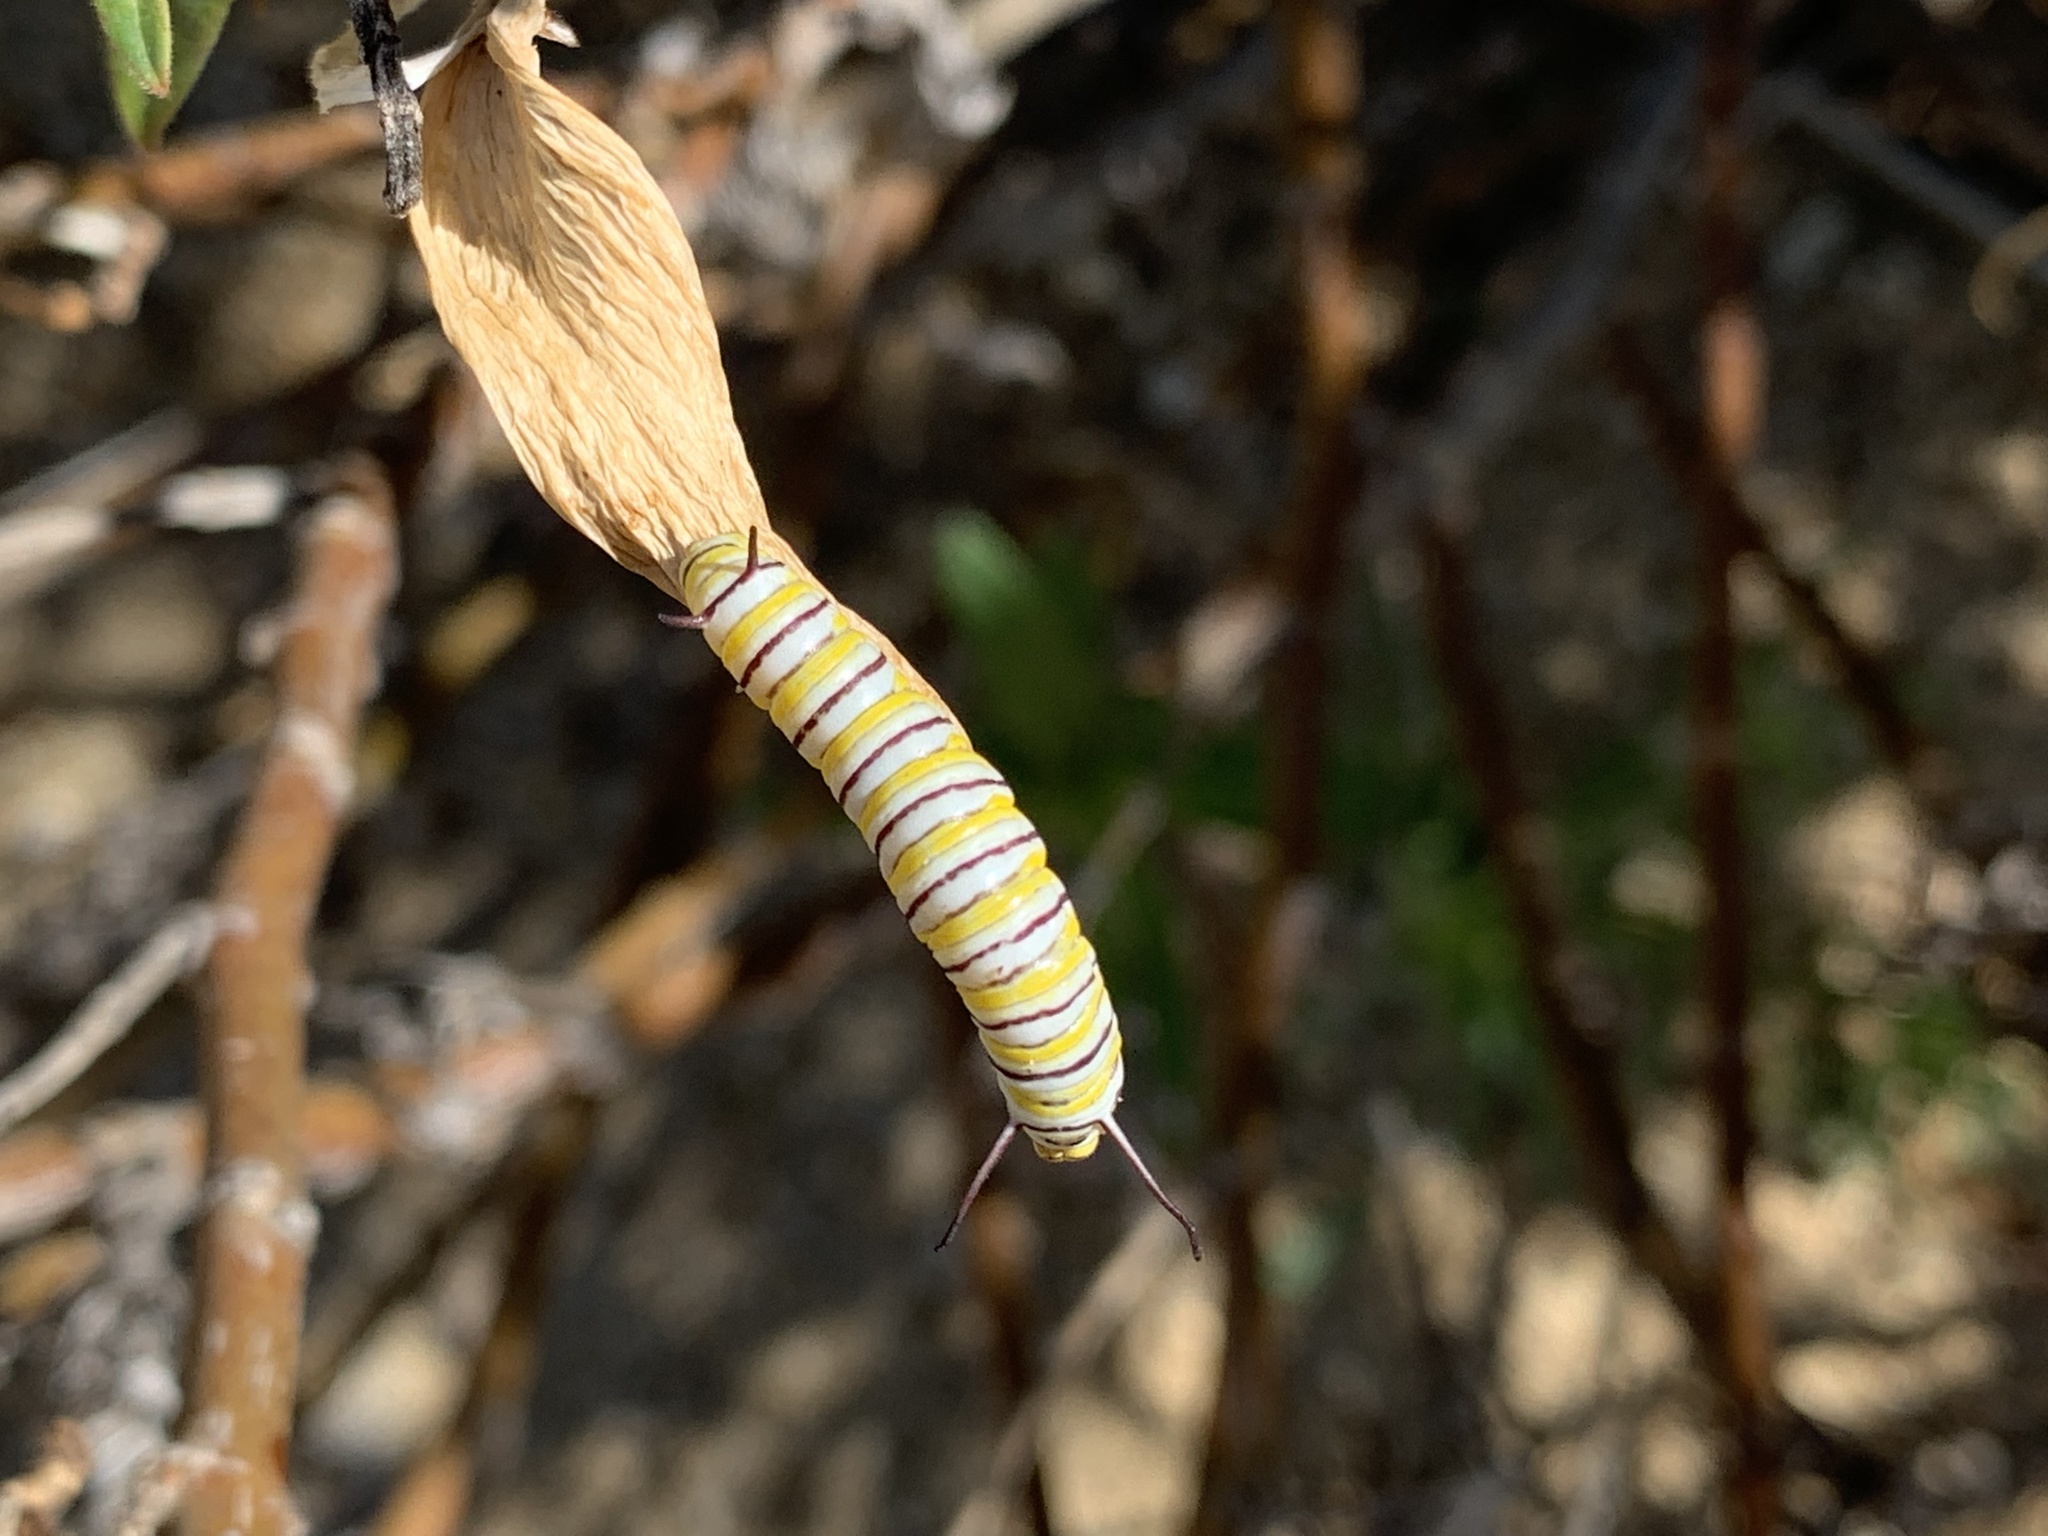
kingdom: Animalia
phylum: Arthropoda
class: Insecta
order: Lepidoptera
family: Nymphalidae
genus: Danaus
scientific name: Danaus plexippus
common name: Monarch
